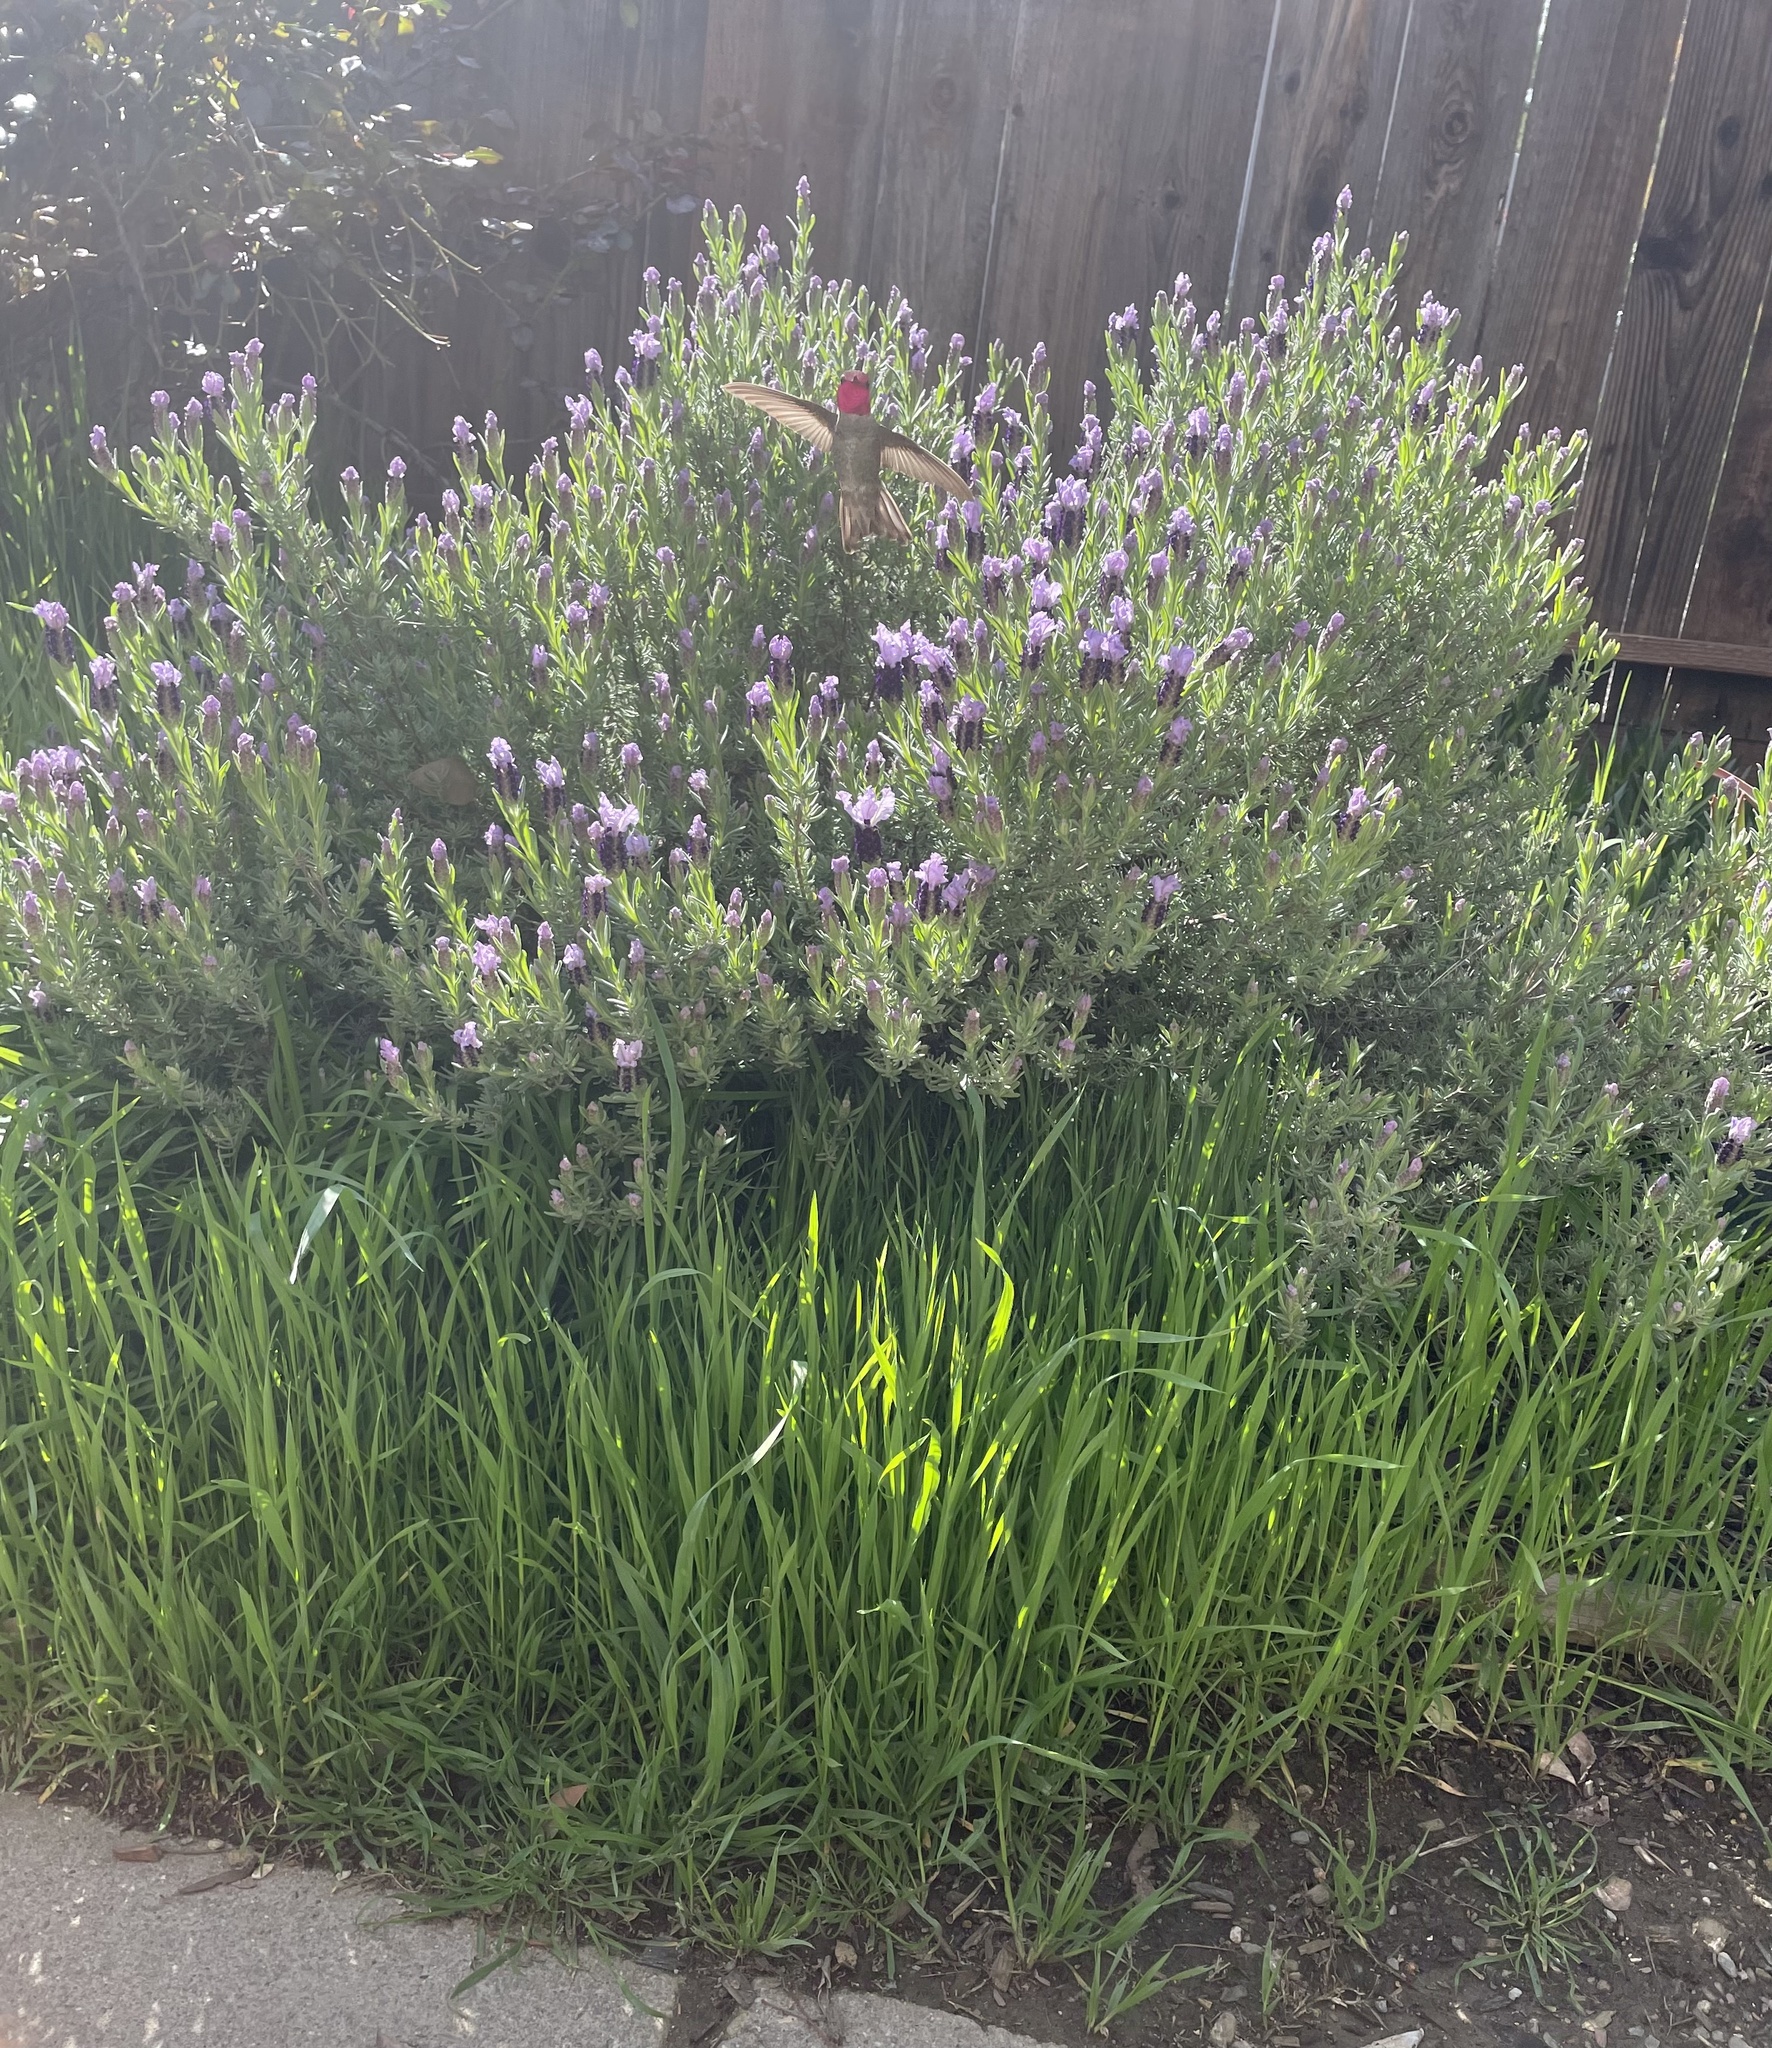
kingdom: Animalia
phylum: Chordata
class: Aves
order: Apodiformes
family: Trochilidae
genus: Calypte
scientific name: Calypte anna
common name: Anna's hummingbird
